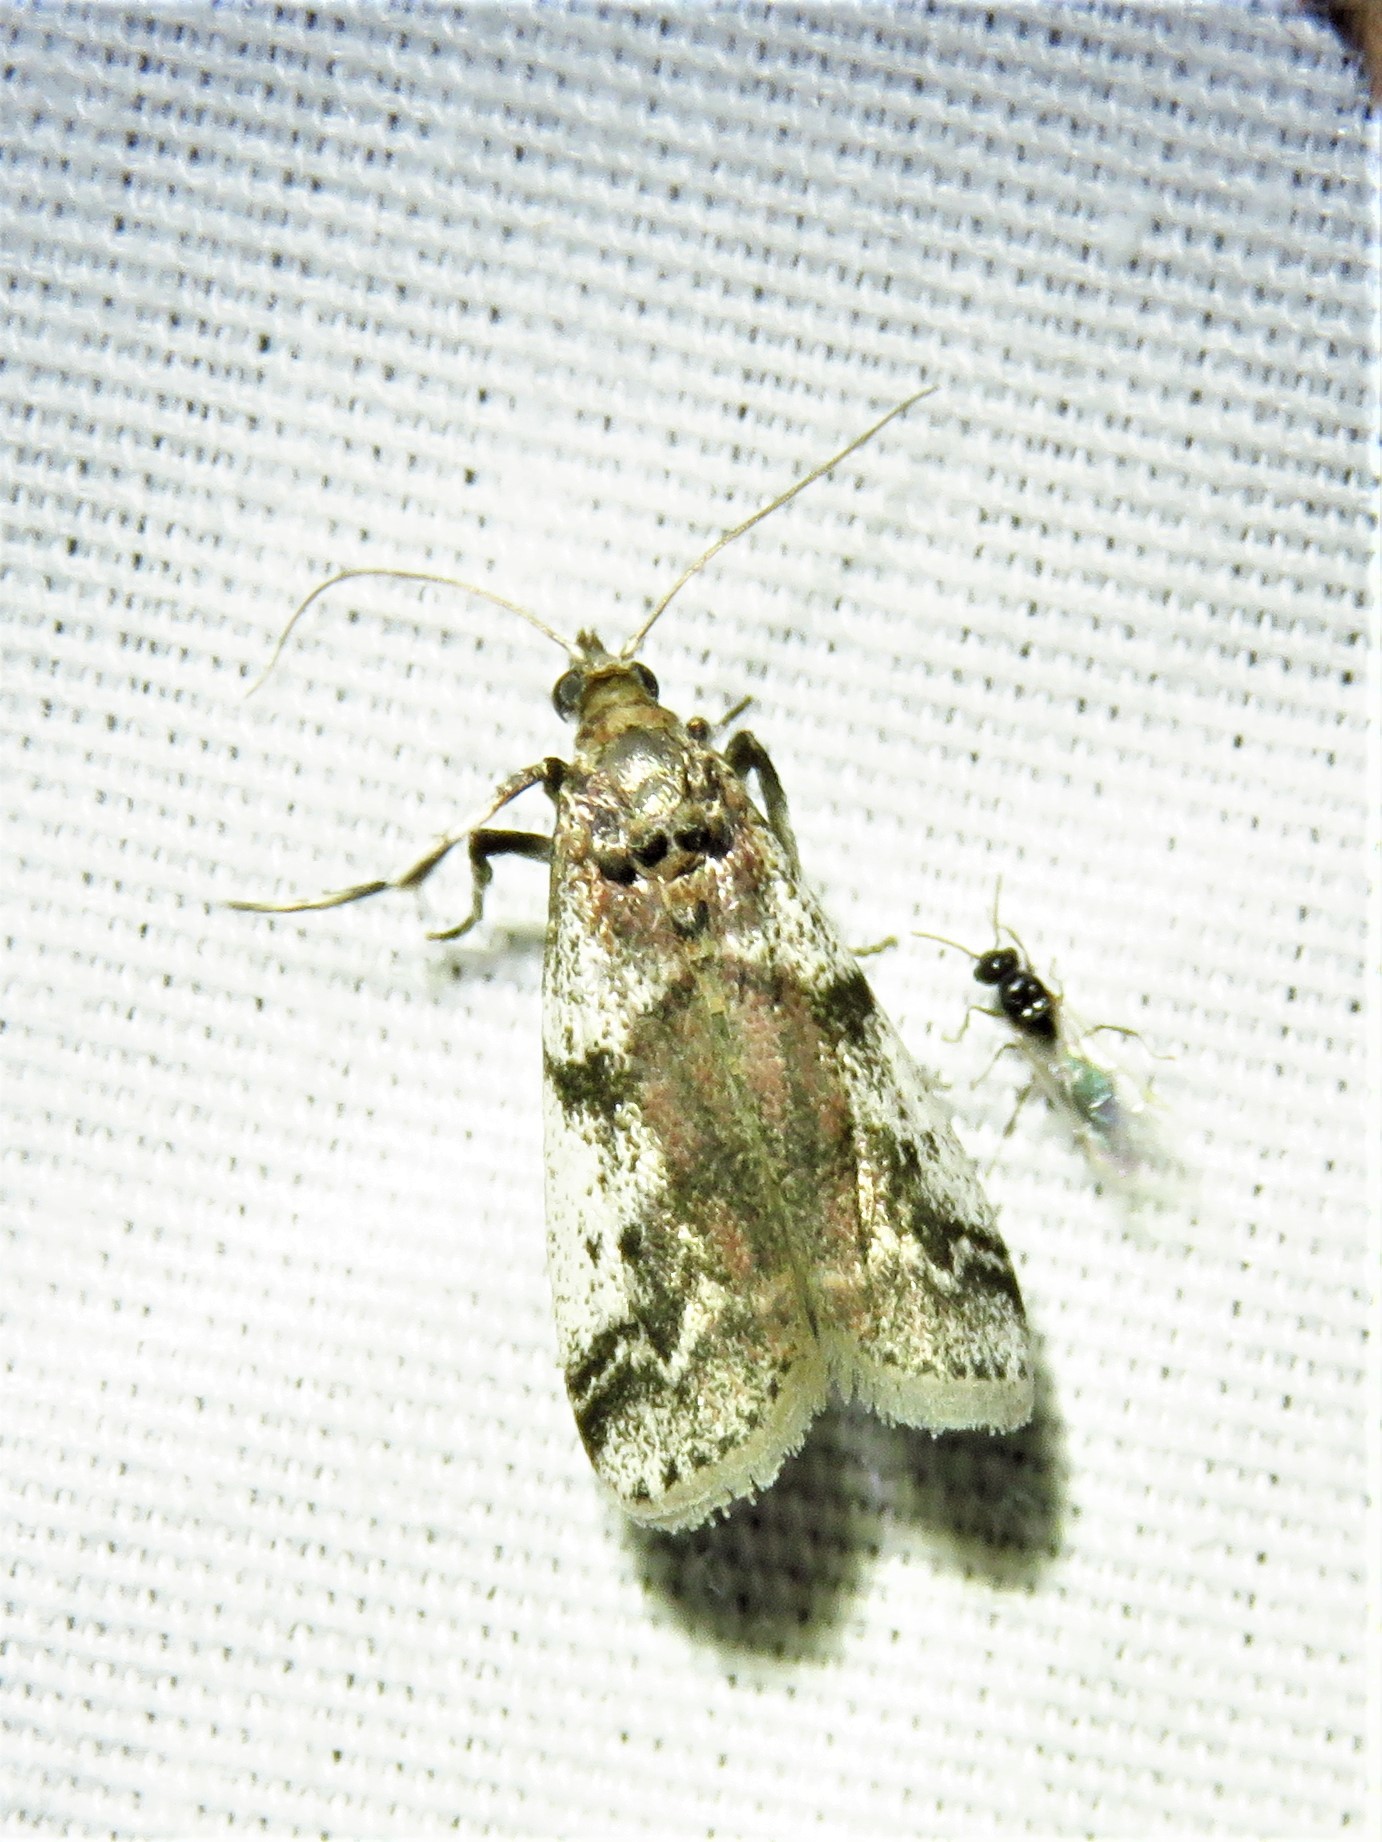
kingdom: Animalia
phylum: Arthropoda
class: Insecta
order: Lepidoptera
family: Pyralidae
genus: Laetilia
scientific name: Laetilia coccidivora
